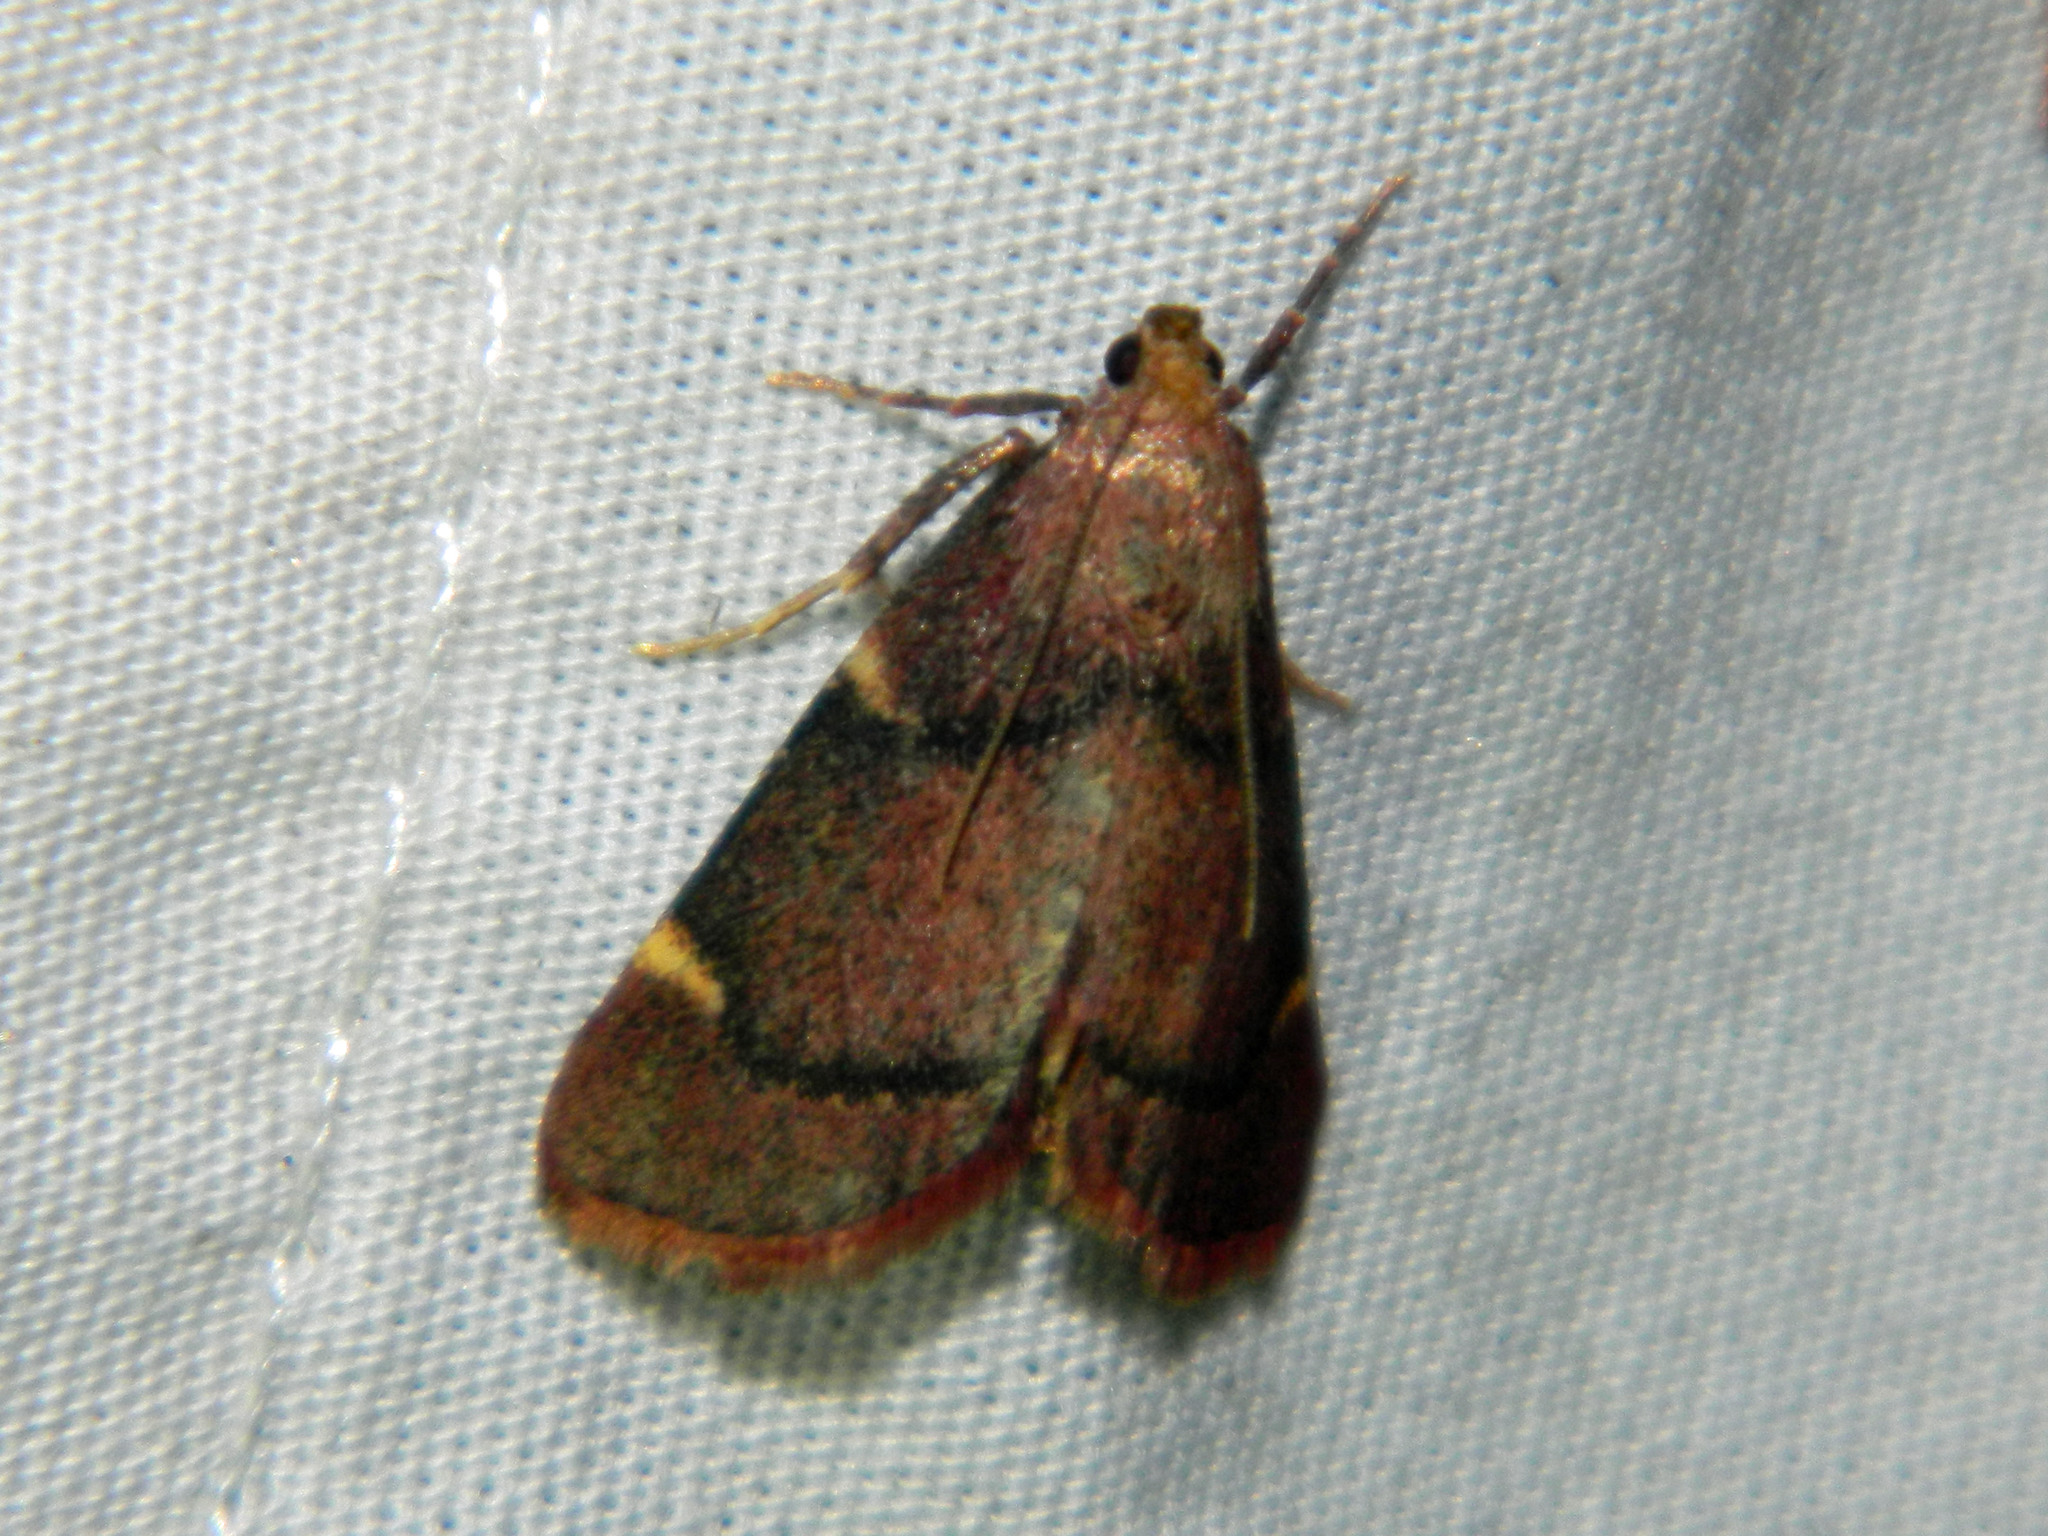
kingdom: Animalia
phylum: Arthropoda
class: Insecta
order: Lepidoptera
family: Pyralidae
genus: Hypsopygia
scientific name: Hypsopygia thymetusalis
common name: Spruce needleworm moth
